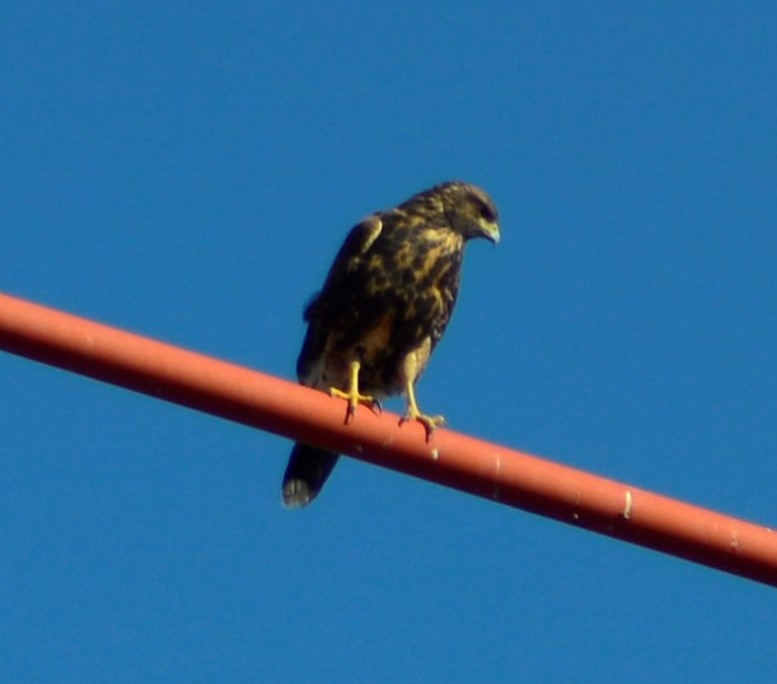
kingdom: Animalia
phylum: Chordata
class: Aves
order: Accipitriformes
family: Accipitridae
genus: Parabuteo
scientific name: Parabuteo unicinctus
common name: Harris's hawk
